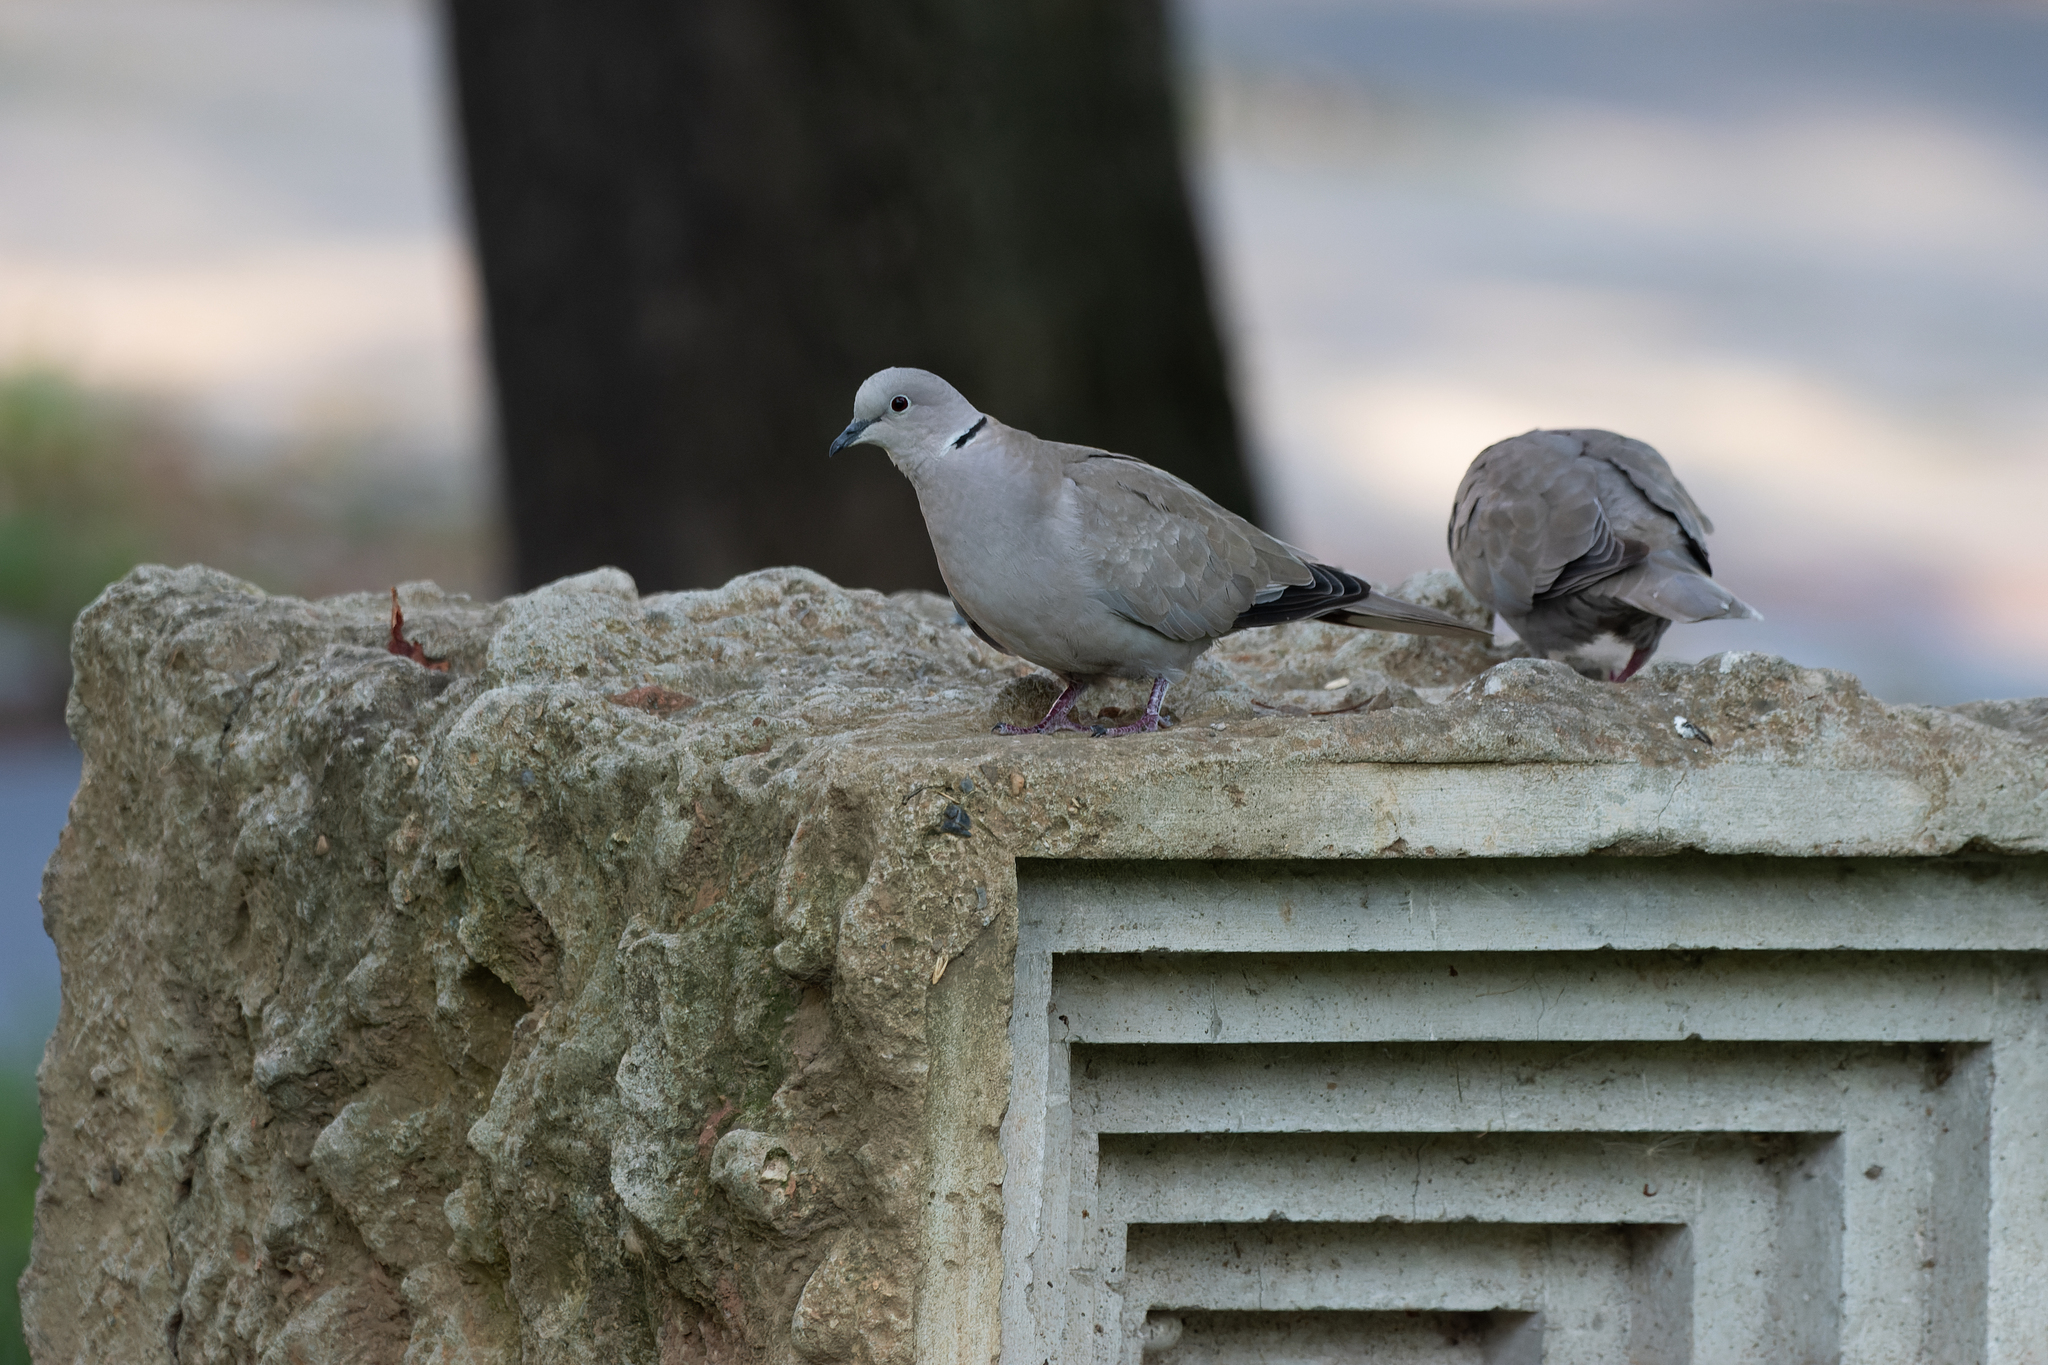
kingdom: Animalia
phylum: Chordata
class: Aves
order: Columbiformes
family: Columbidae
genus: Streptopelia
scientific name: Streptopelia decaocto
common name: Eurasian collared dove
